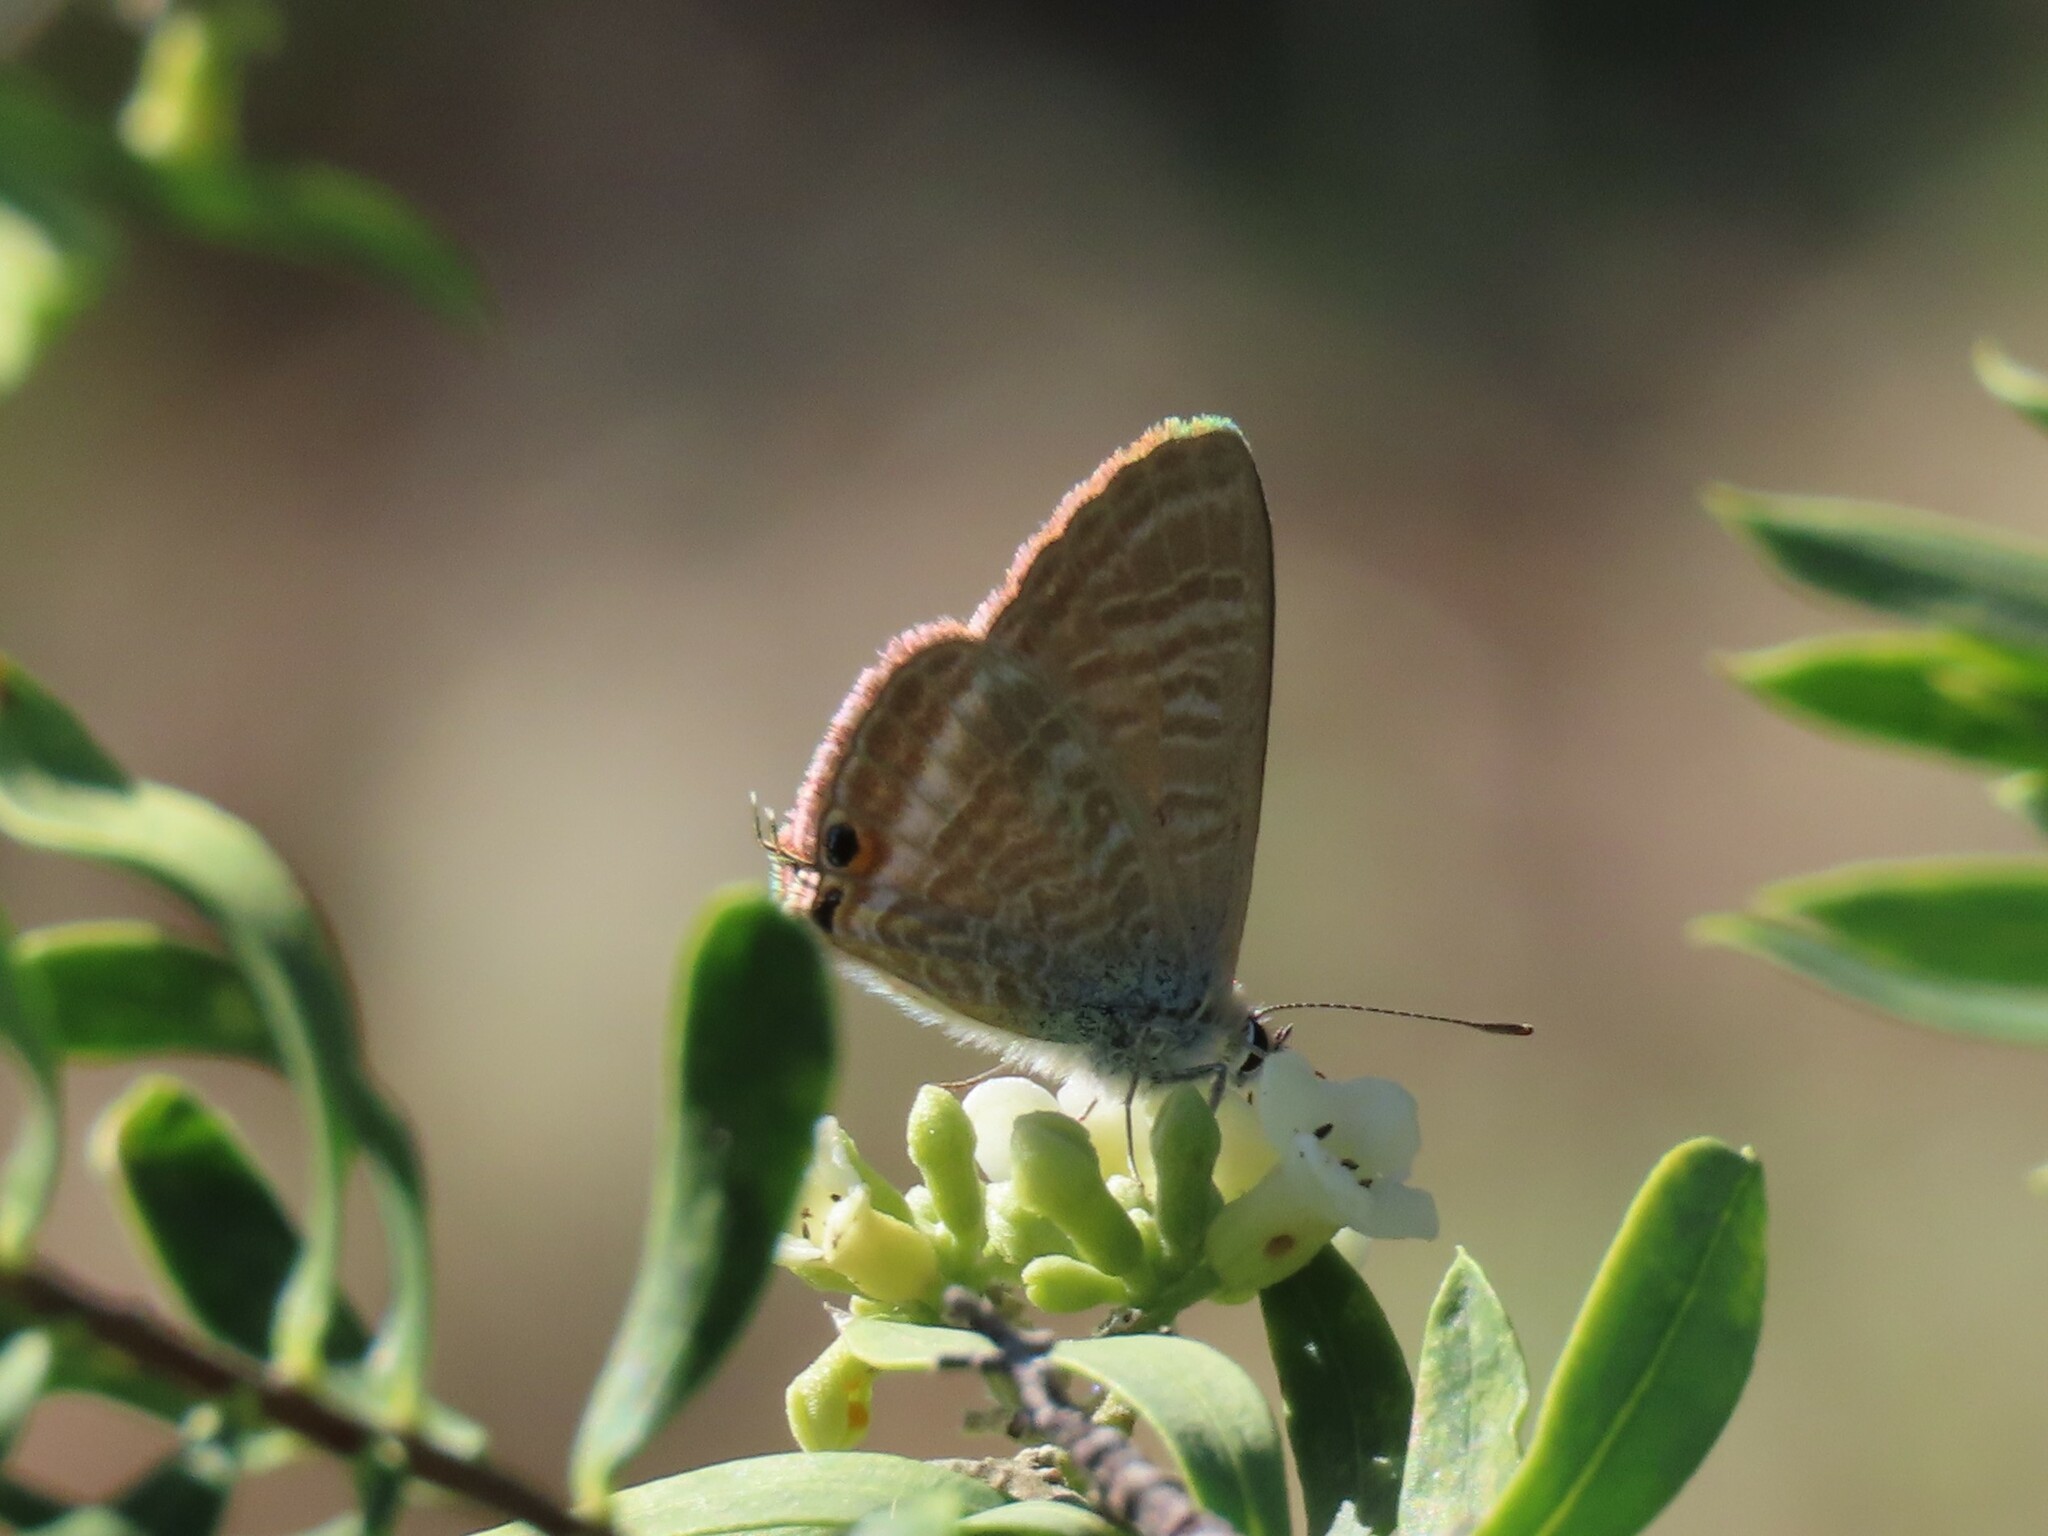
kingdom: Animalia
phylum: Arthropoda
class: Insecta
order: Lepidoptera
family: Lycaenidae
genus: Lampides
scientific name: Lampides boeticus
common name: Long-tailed blue
